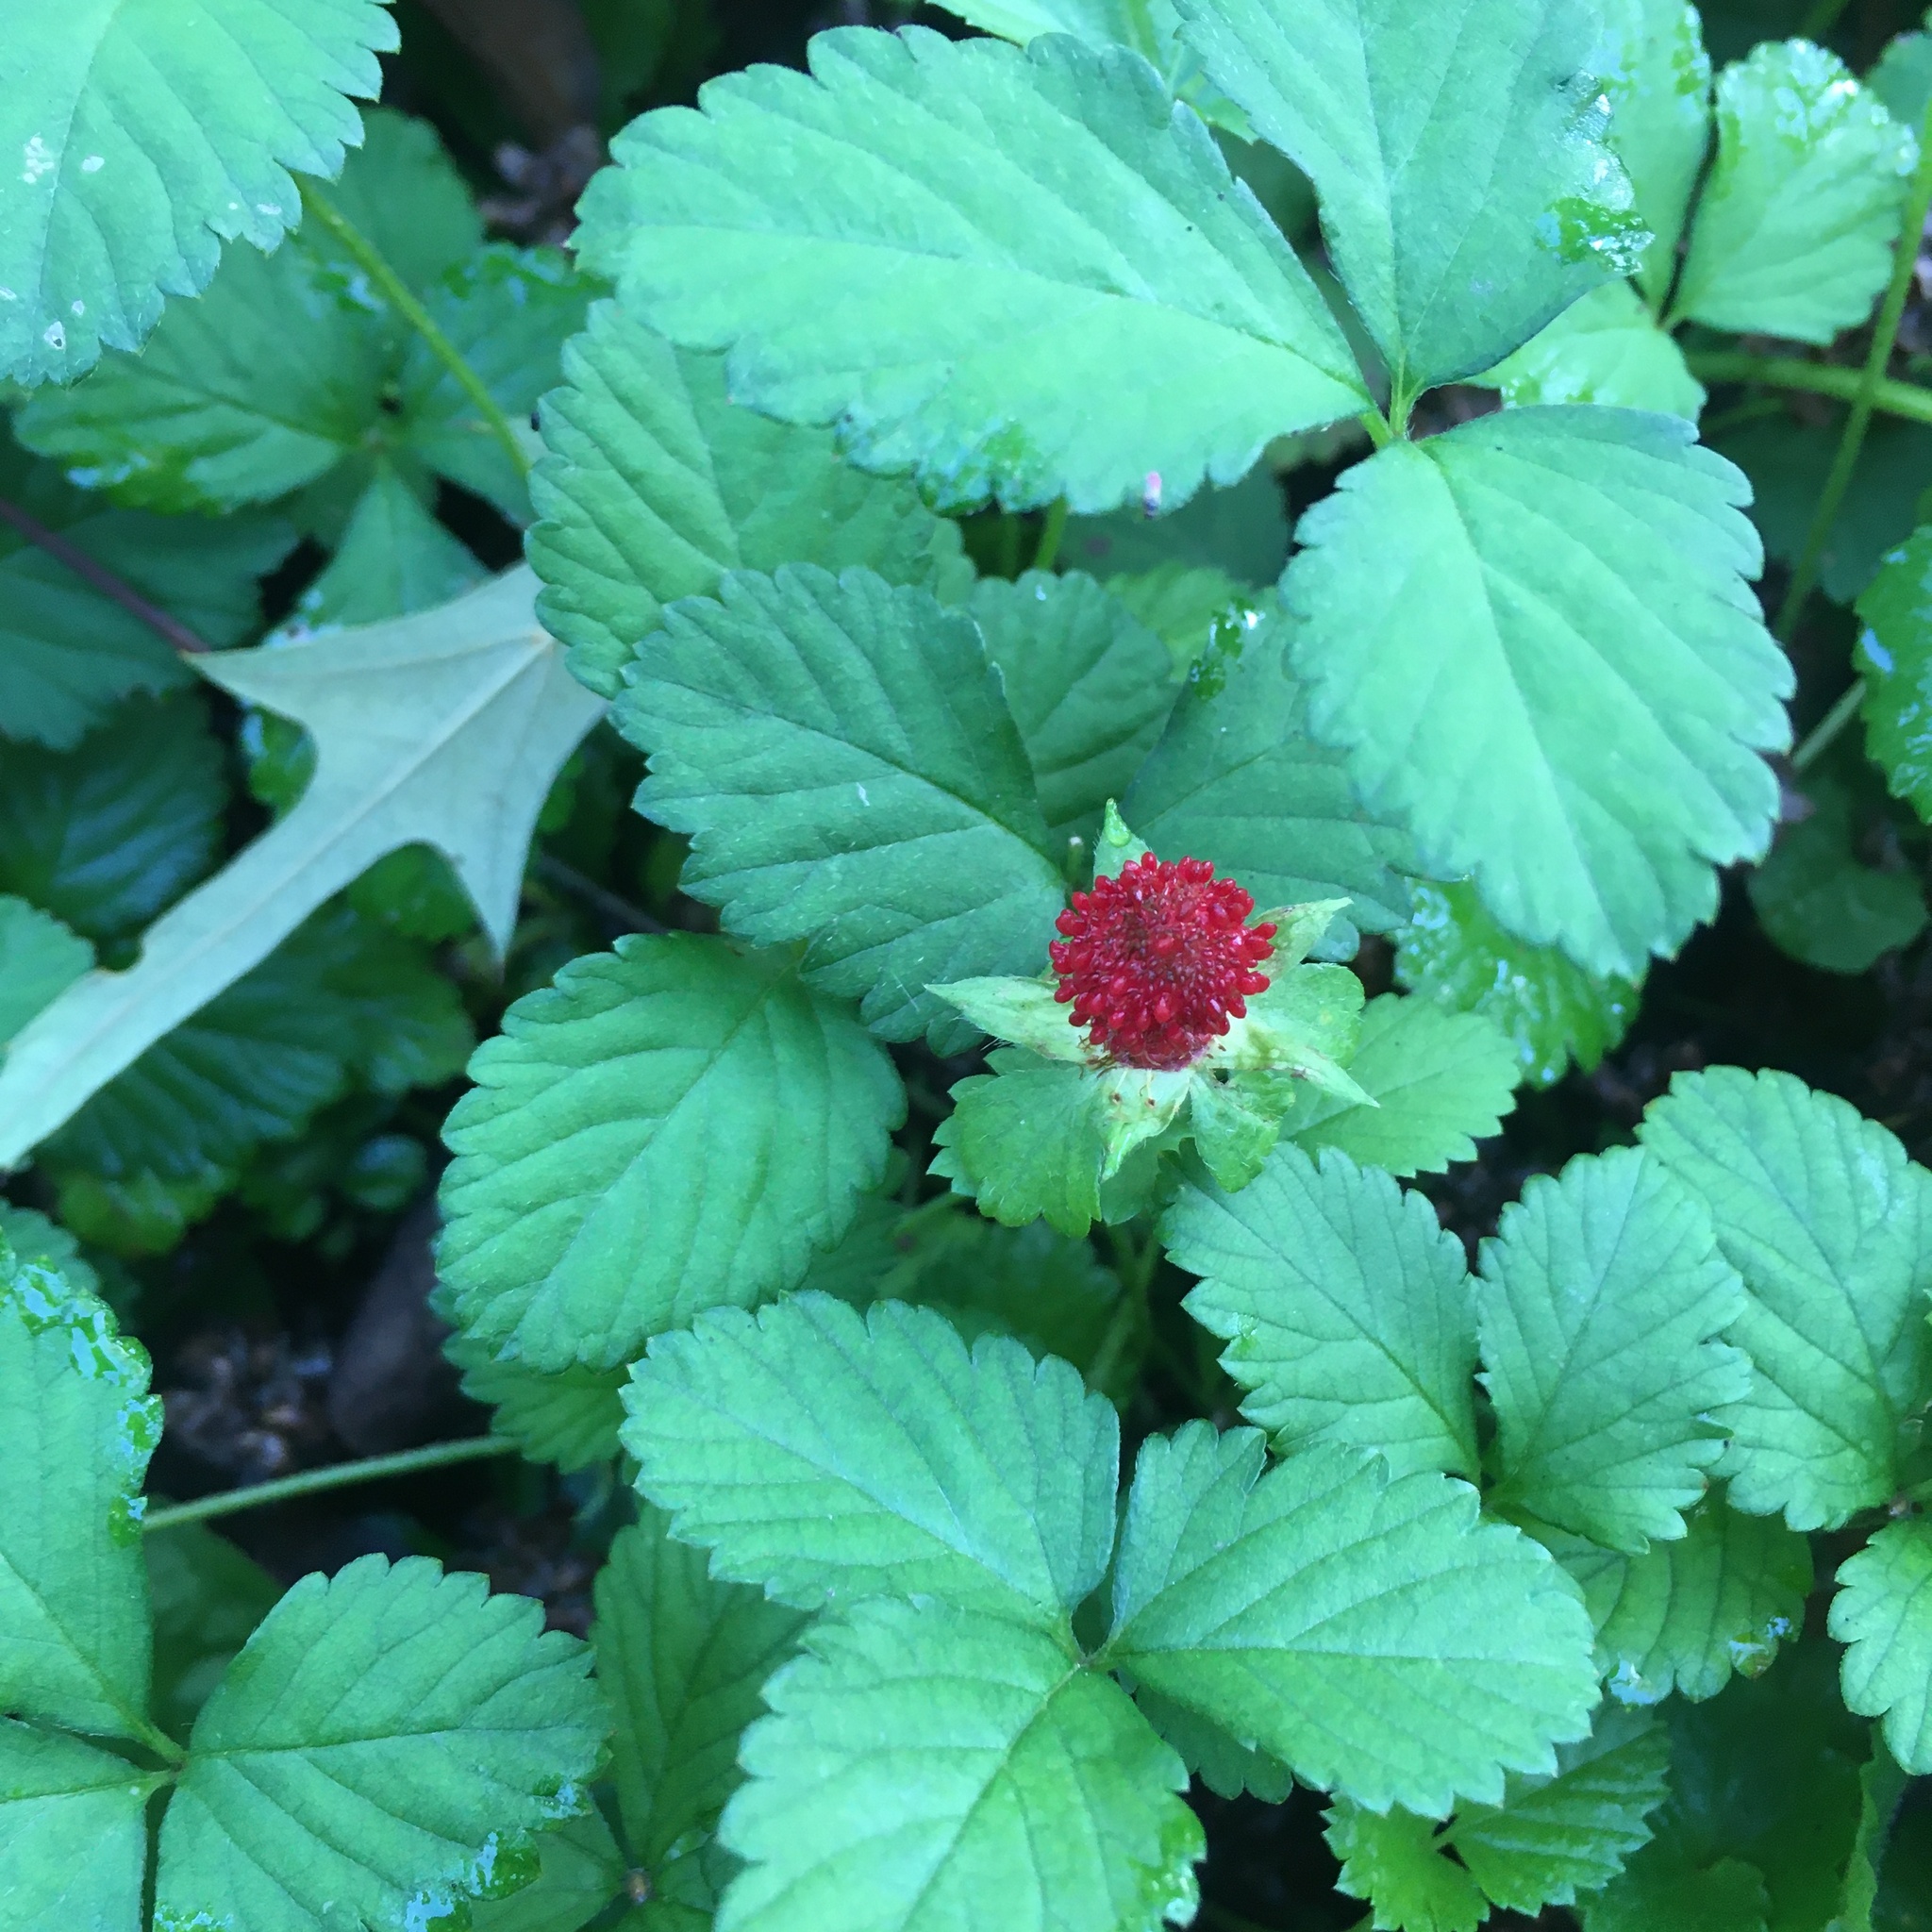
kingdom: Plantae
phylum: Tracheophyta
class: Magnoliopsida
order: Rosales
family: Rosaceae
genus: Potentilla
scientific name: Potentilla indica
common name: Yellow-flowered strawberry
